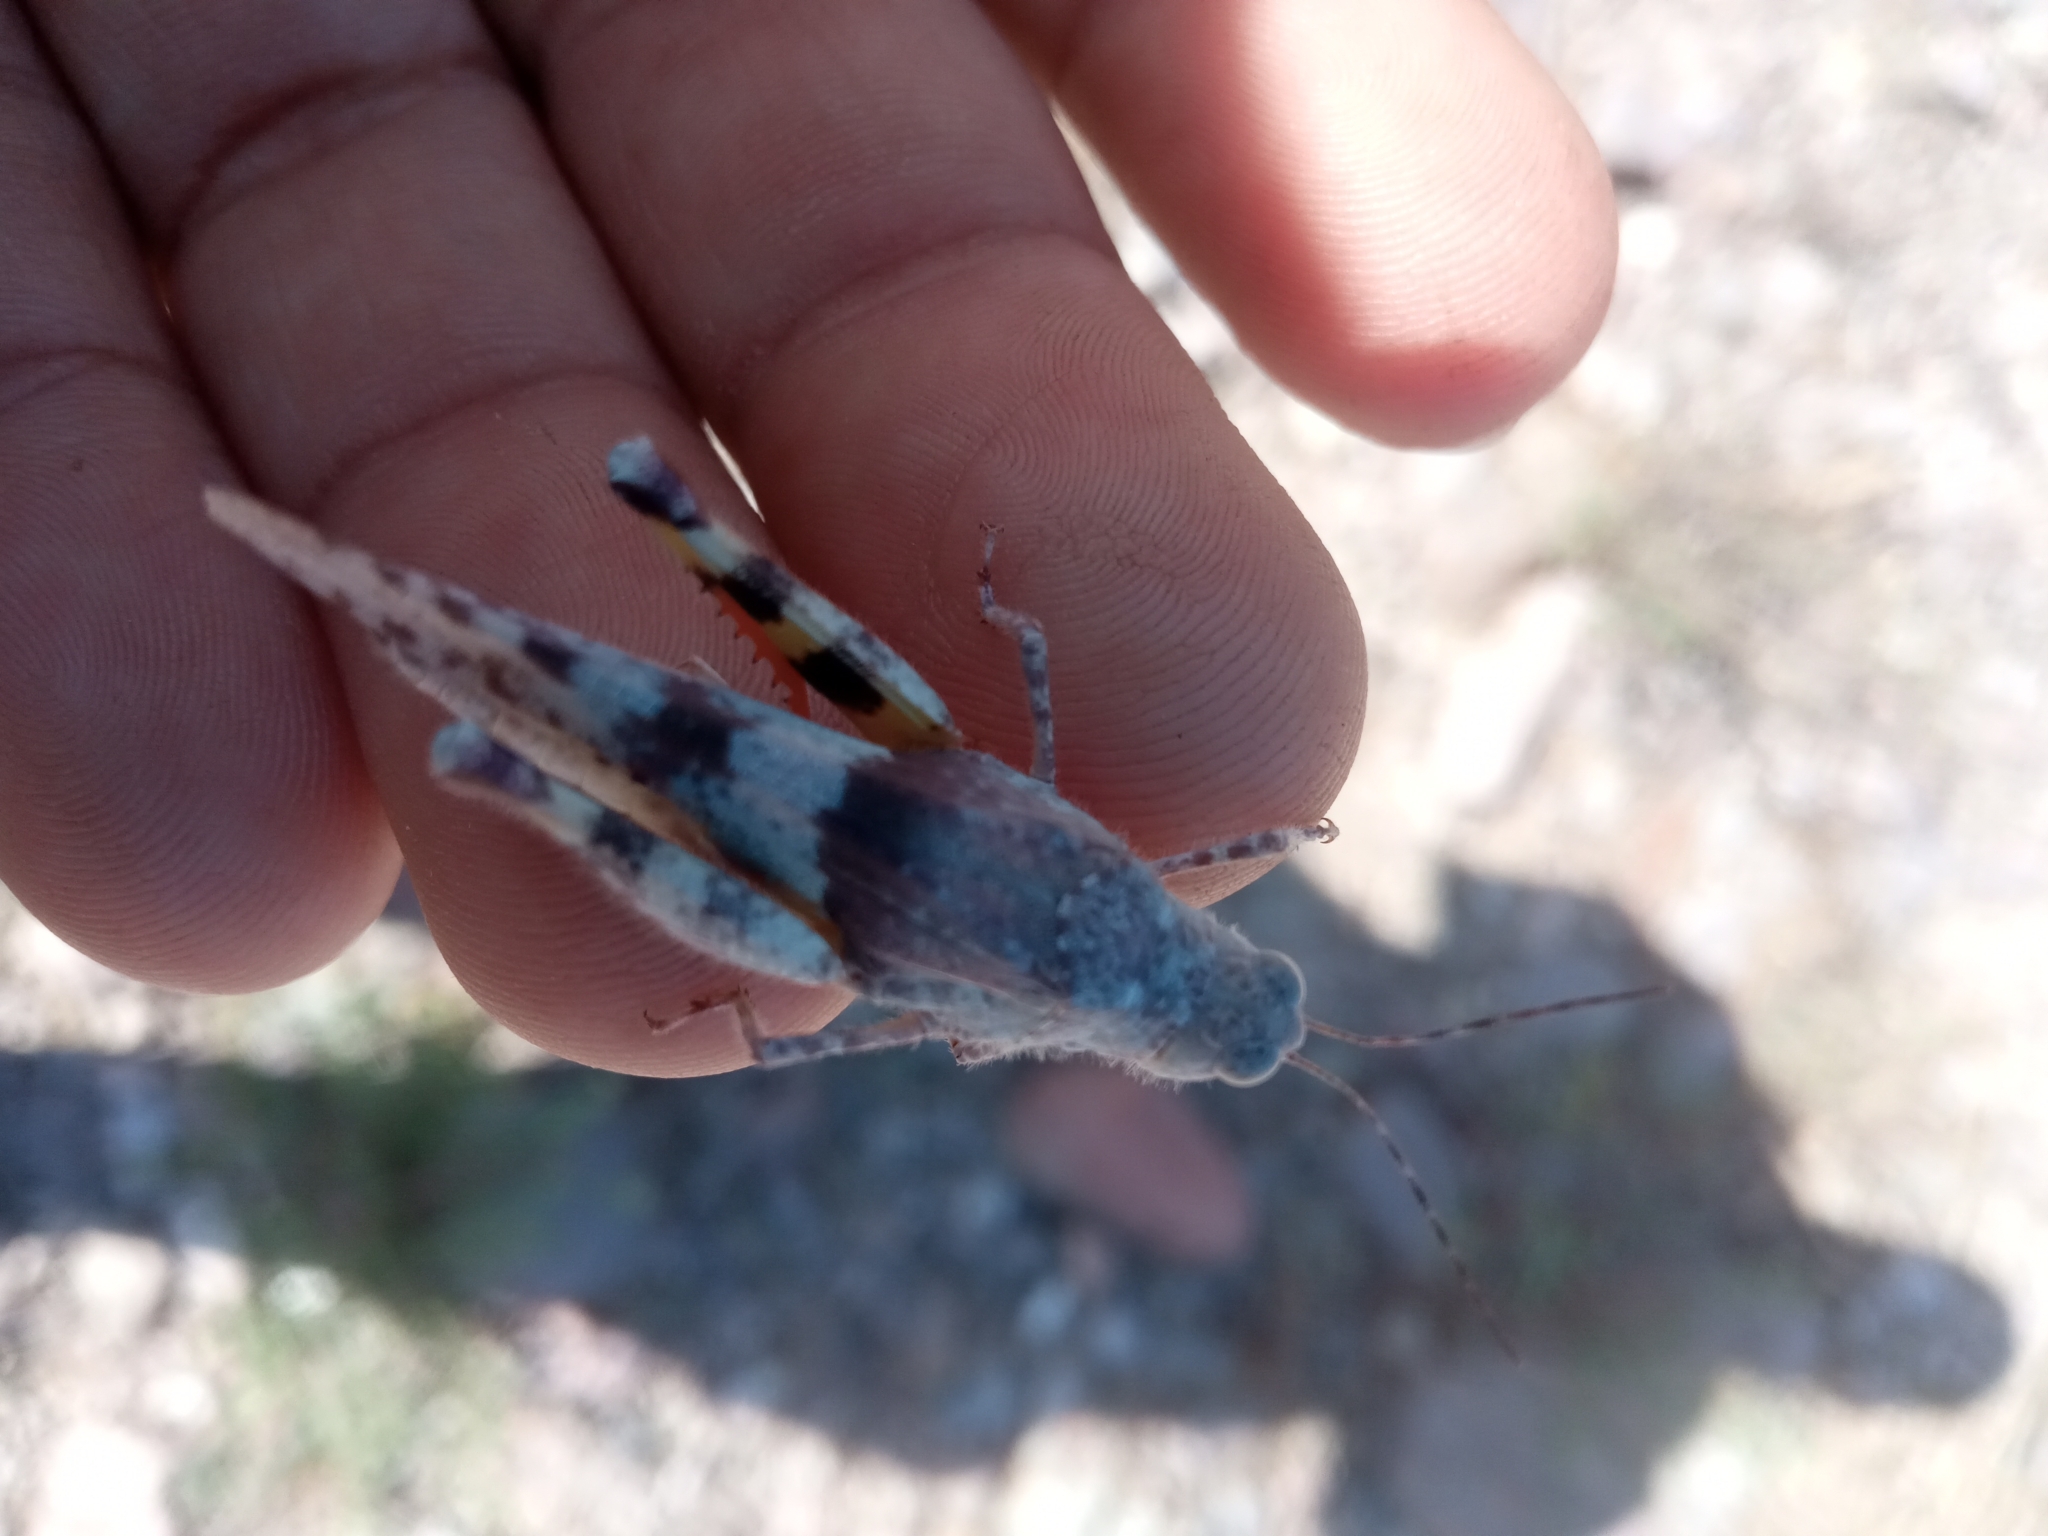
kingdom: Animalia
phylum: Arthropoda
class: Insecta
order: Orthoptera
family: Acrididae
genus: Heliastus
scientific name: Heliastus benjamini
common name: Arroyo grasshopper
